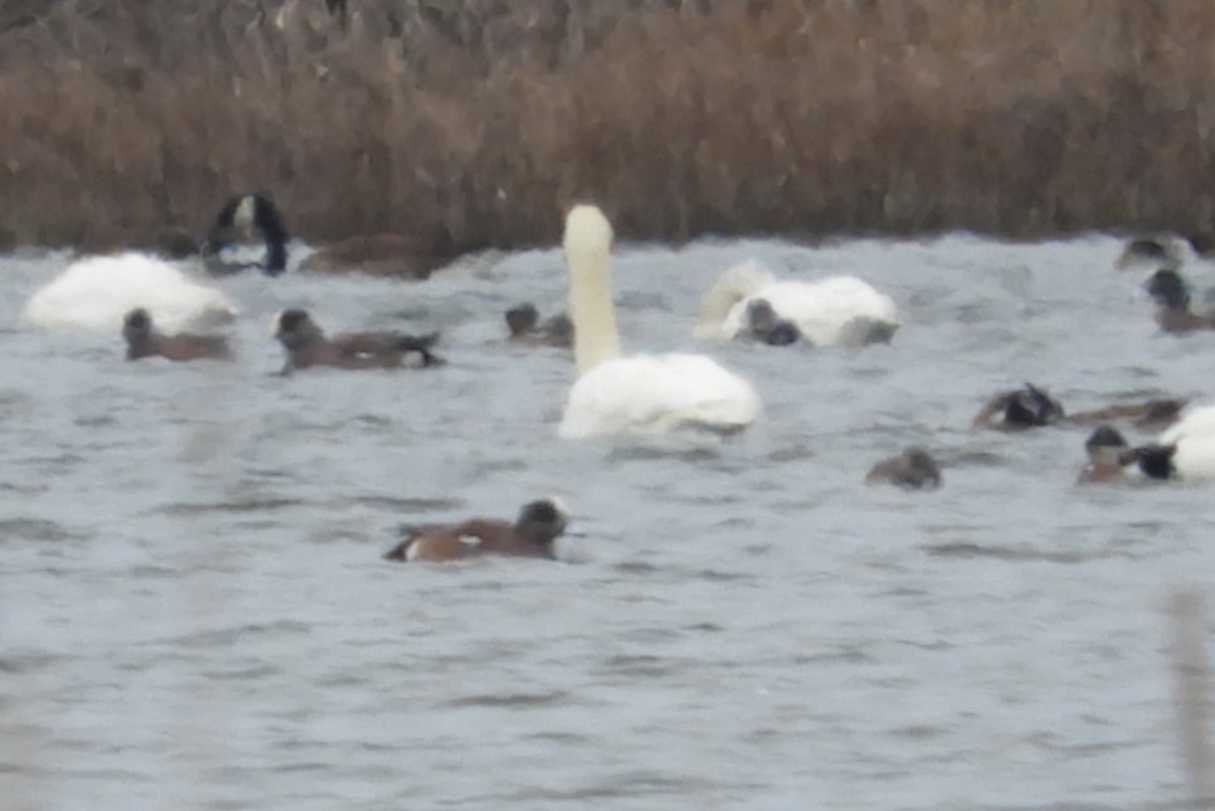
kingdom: Animalia
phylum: Chordata
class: Aves
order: Anseriformes
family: Anatidae
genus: Mareca
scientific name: Mareca americana
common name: American wigeon
